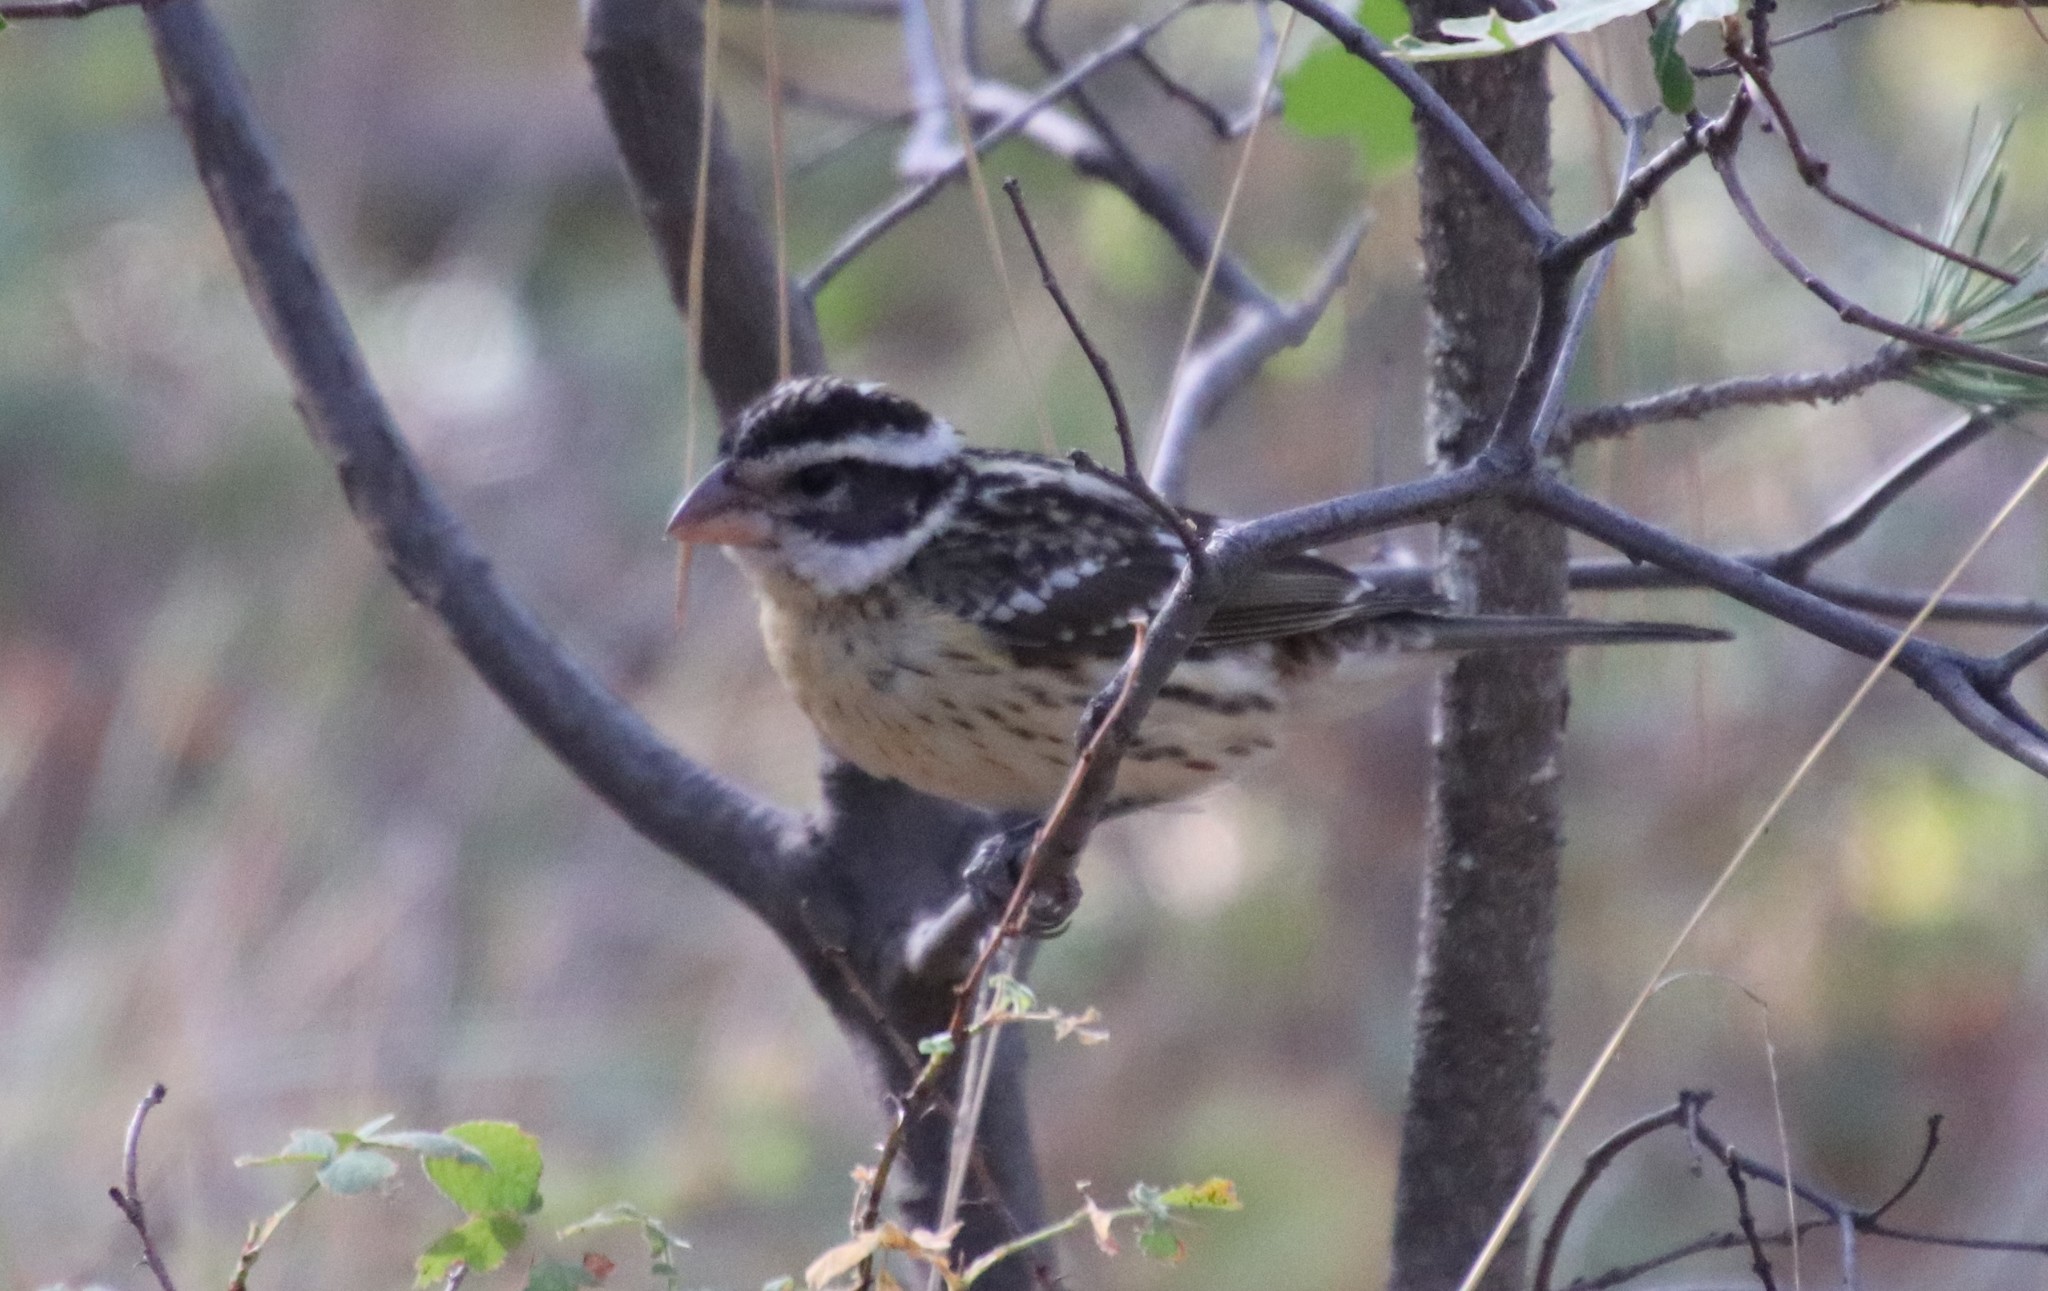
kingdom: Animalia
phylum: Chordata
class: Aves
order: Passeriformes
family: Cardinalidae
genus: Pheucticus
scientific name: Pheucticus melanocephalus
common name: Black-headed grosbeak
